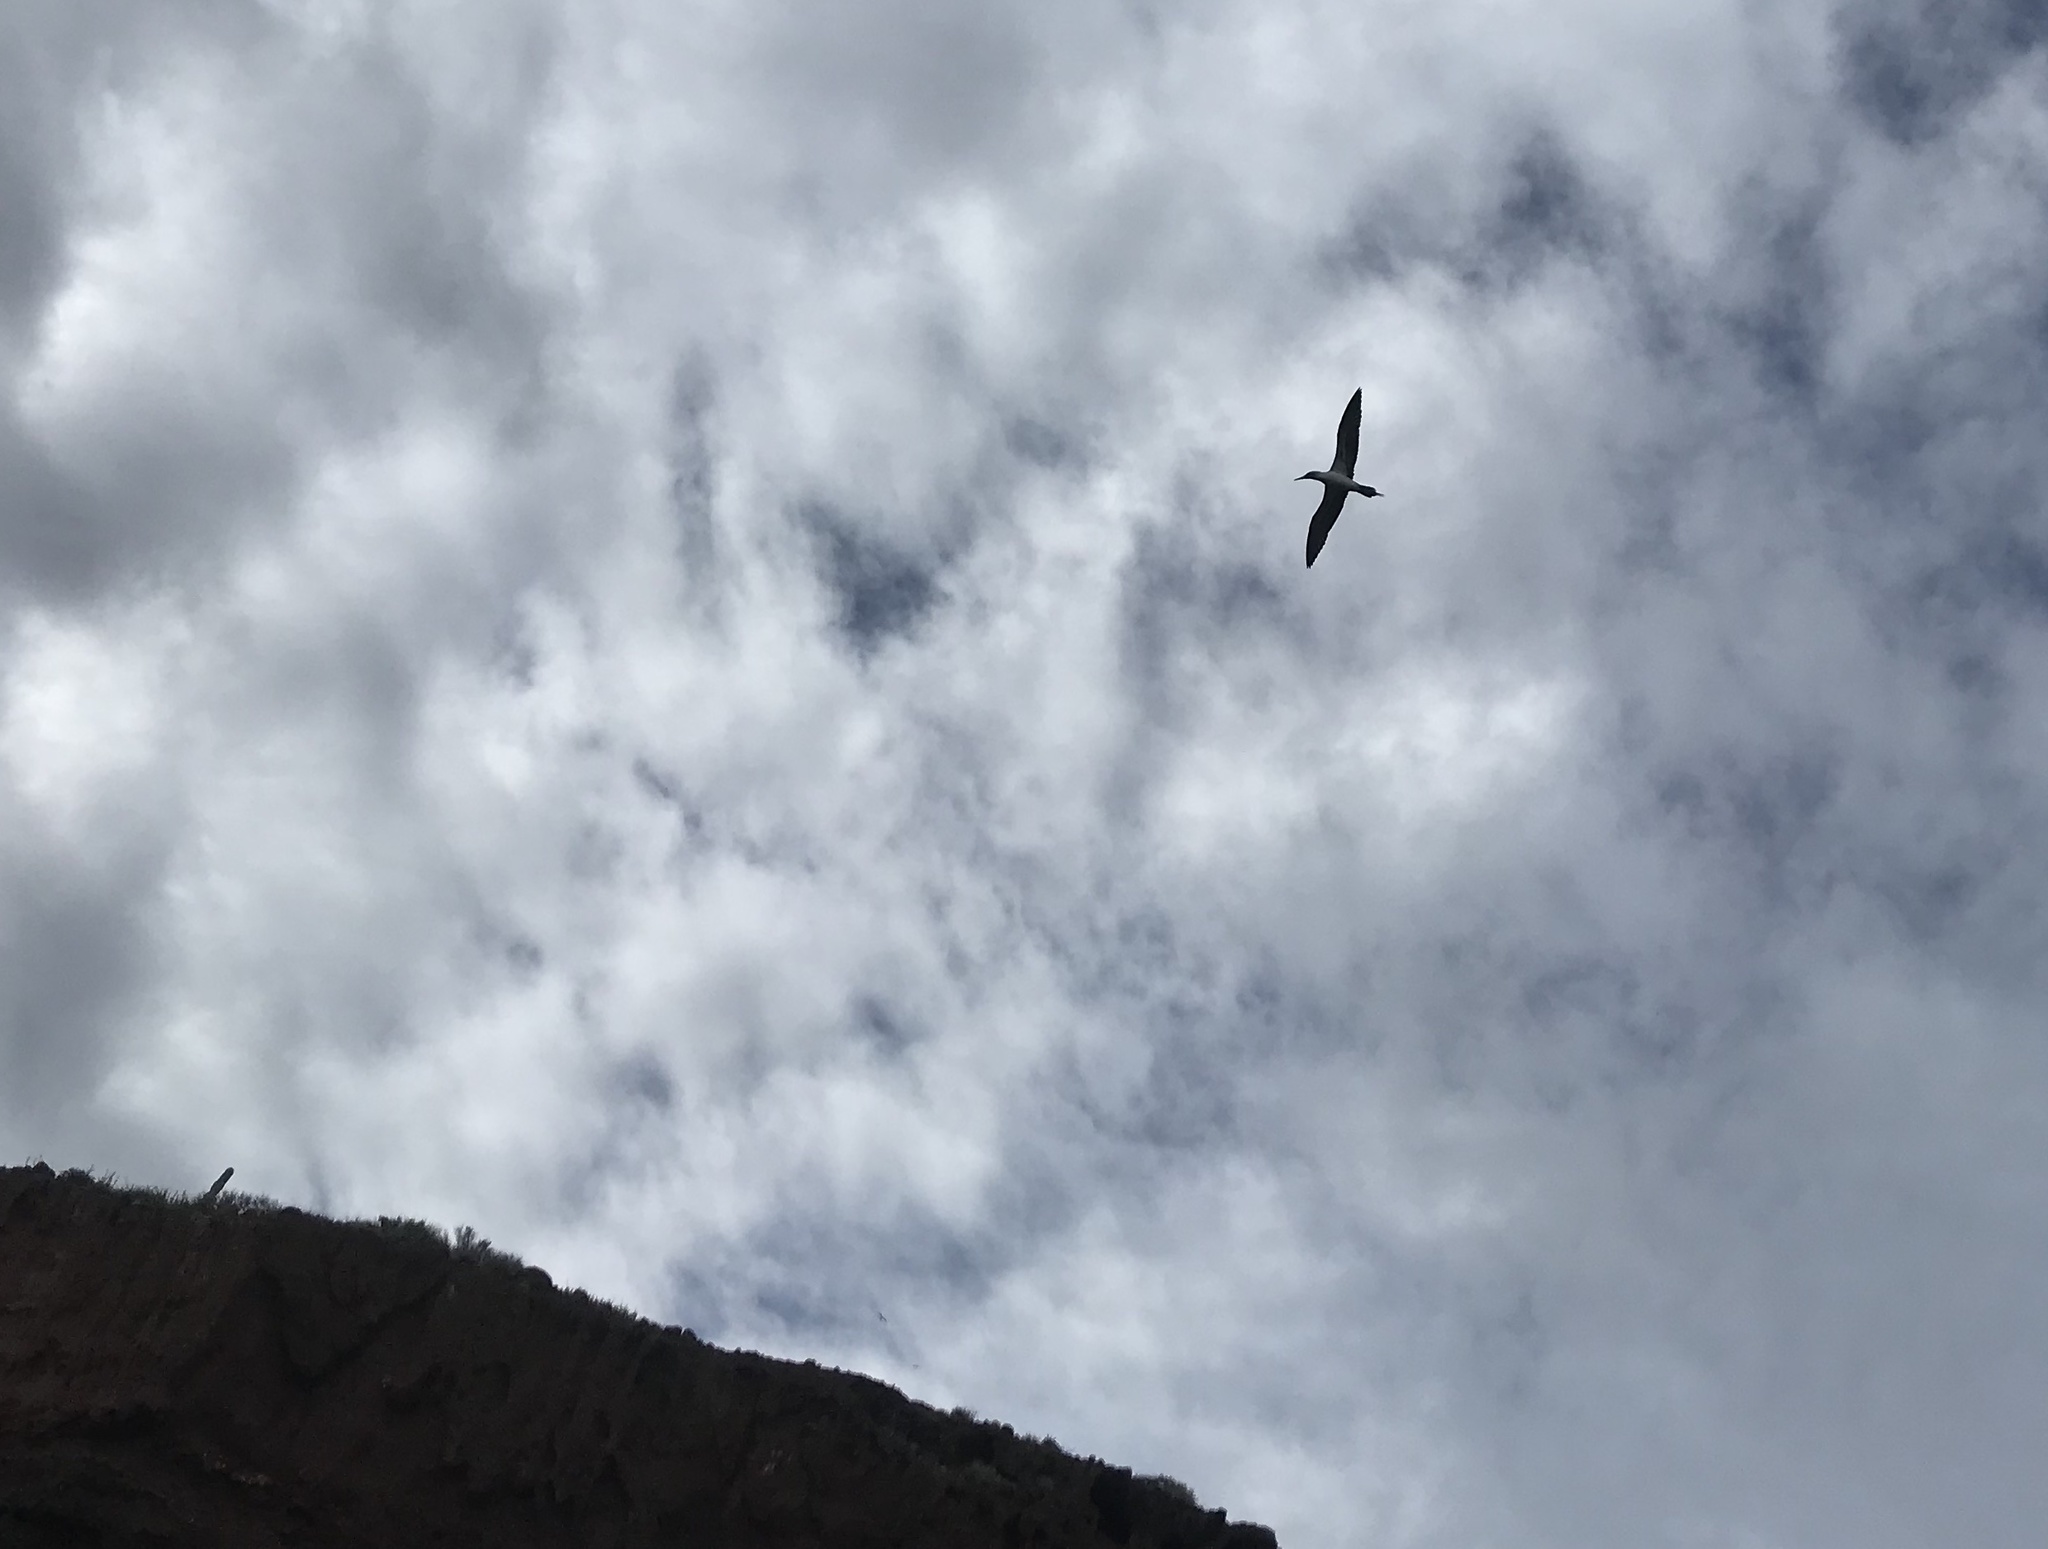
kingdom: Animalia
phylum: Chordata
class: Aves
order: Suliformes
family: Sulidae
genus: Sula
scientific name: Sula nebouxii
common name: Blue-footed booby
